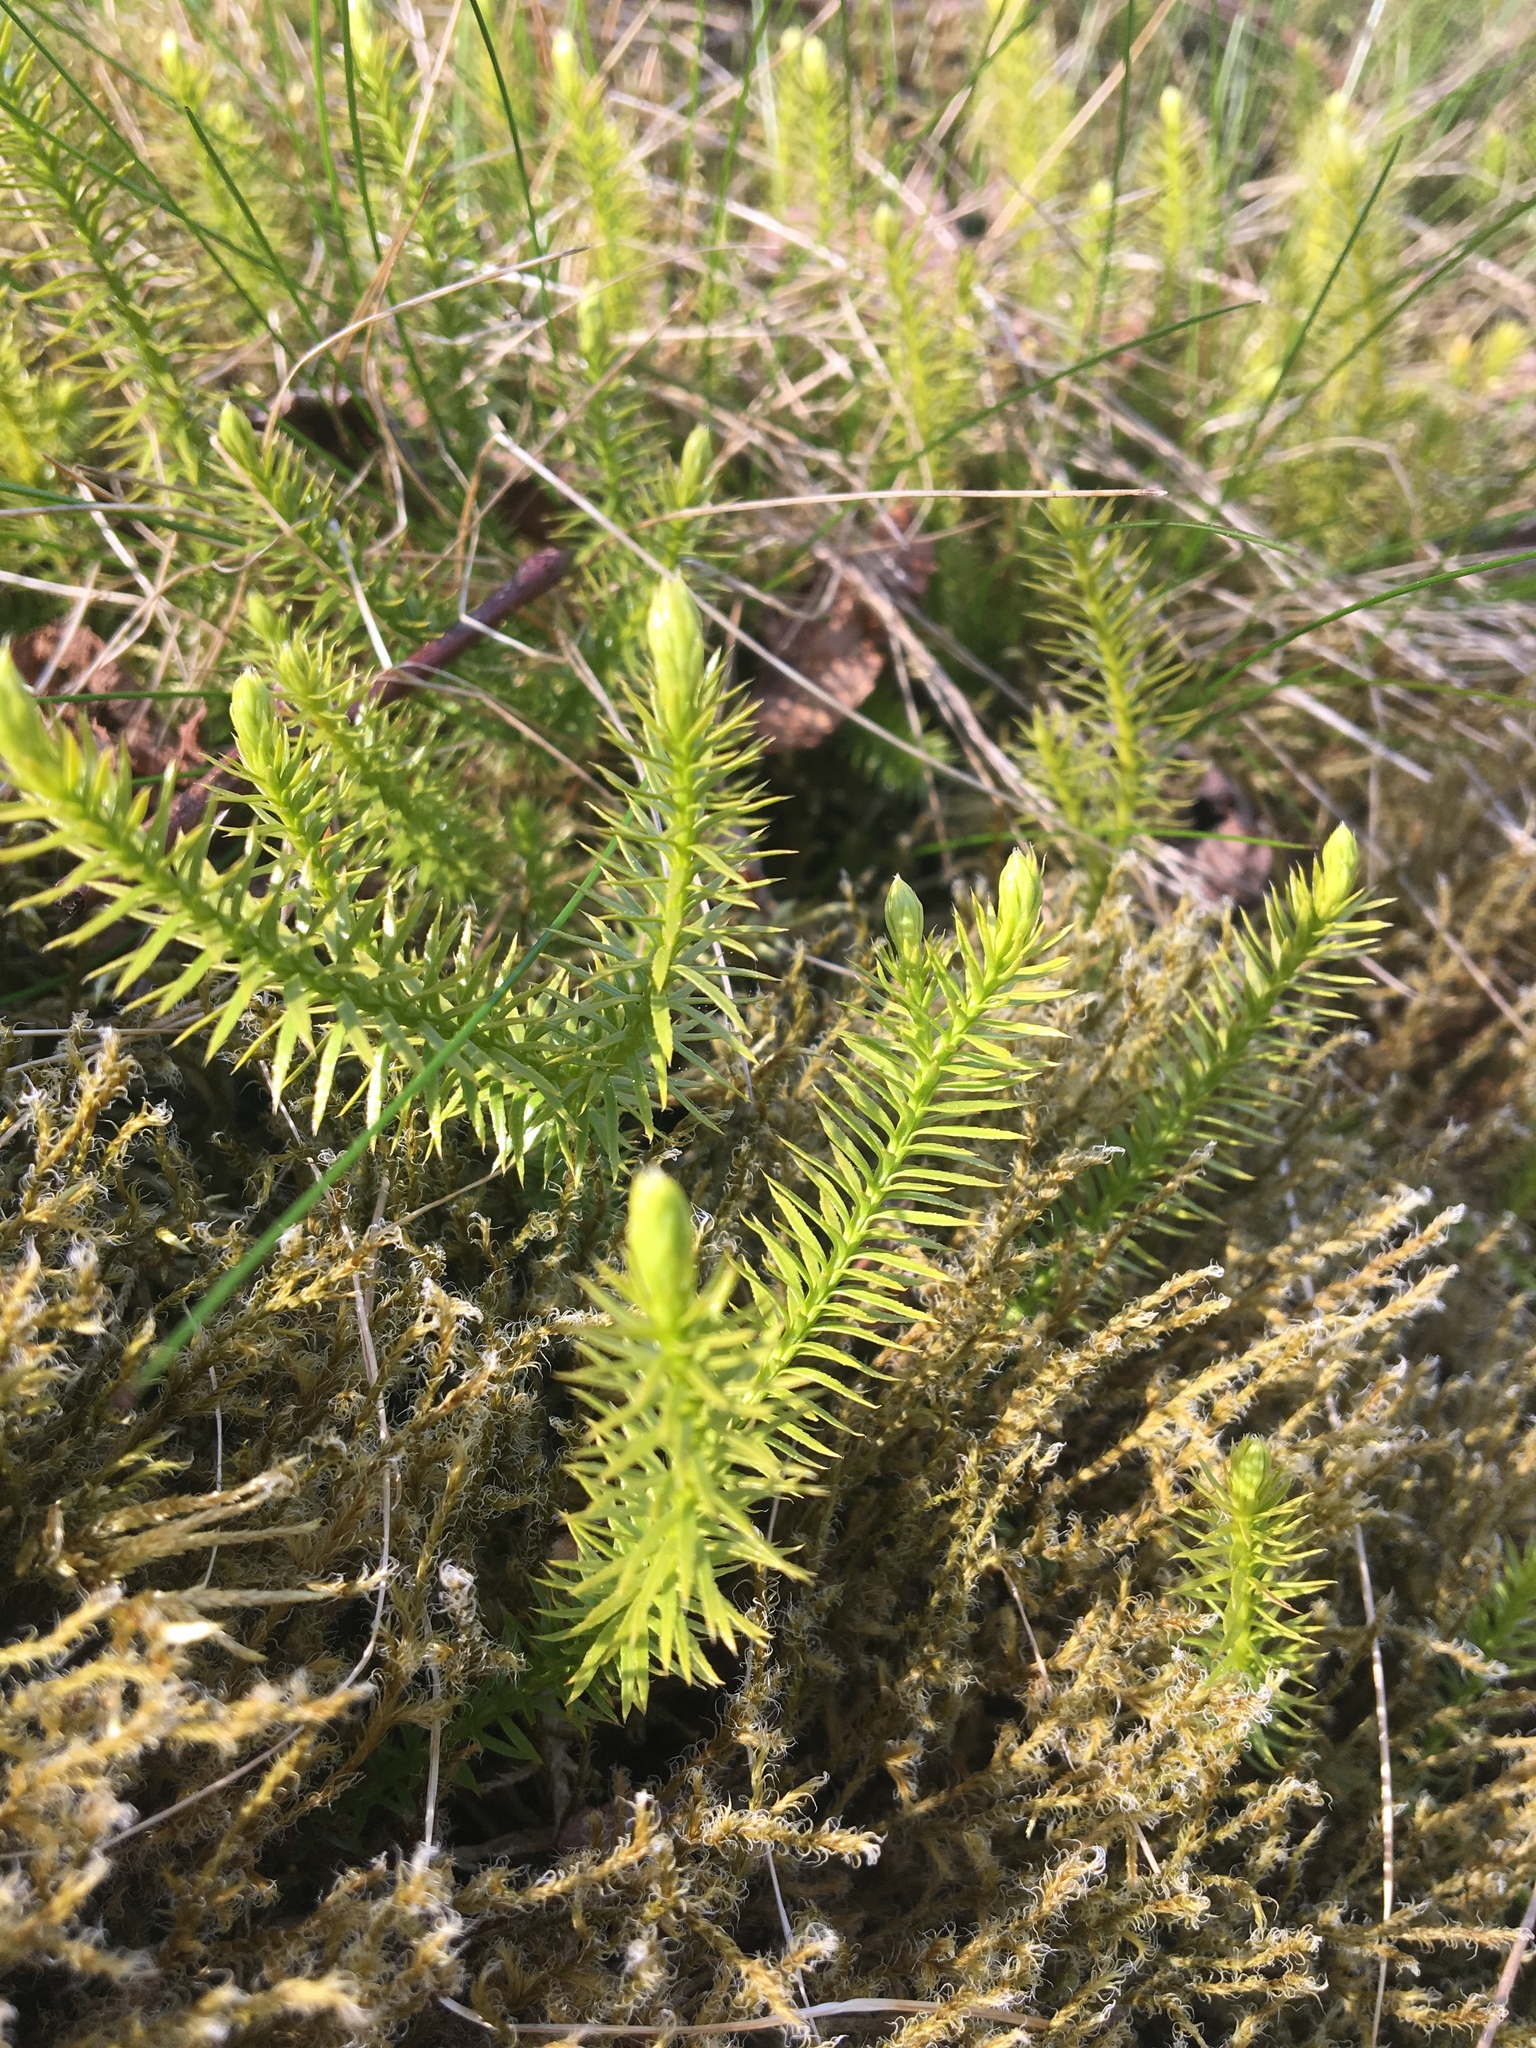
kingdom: Plantae
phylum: Tracheophyta
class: Lycopodiopsida
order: Lycopodiales
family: Lycopodiaceae
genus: Spinulum
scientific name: Spinulum annotinum
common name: Interrupted club-moss
